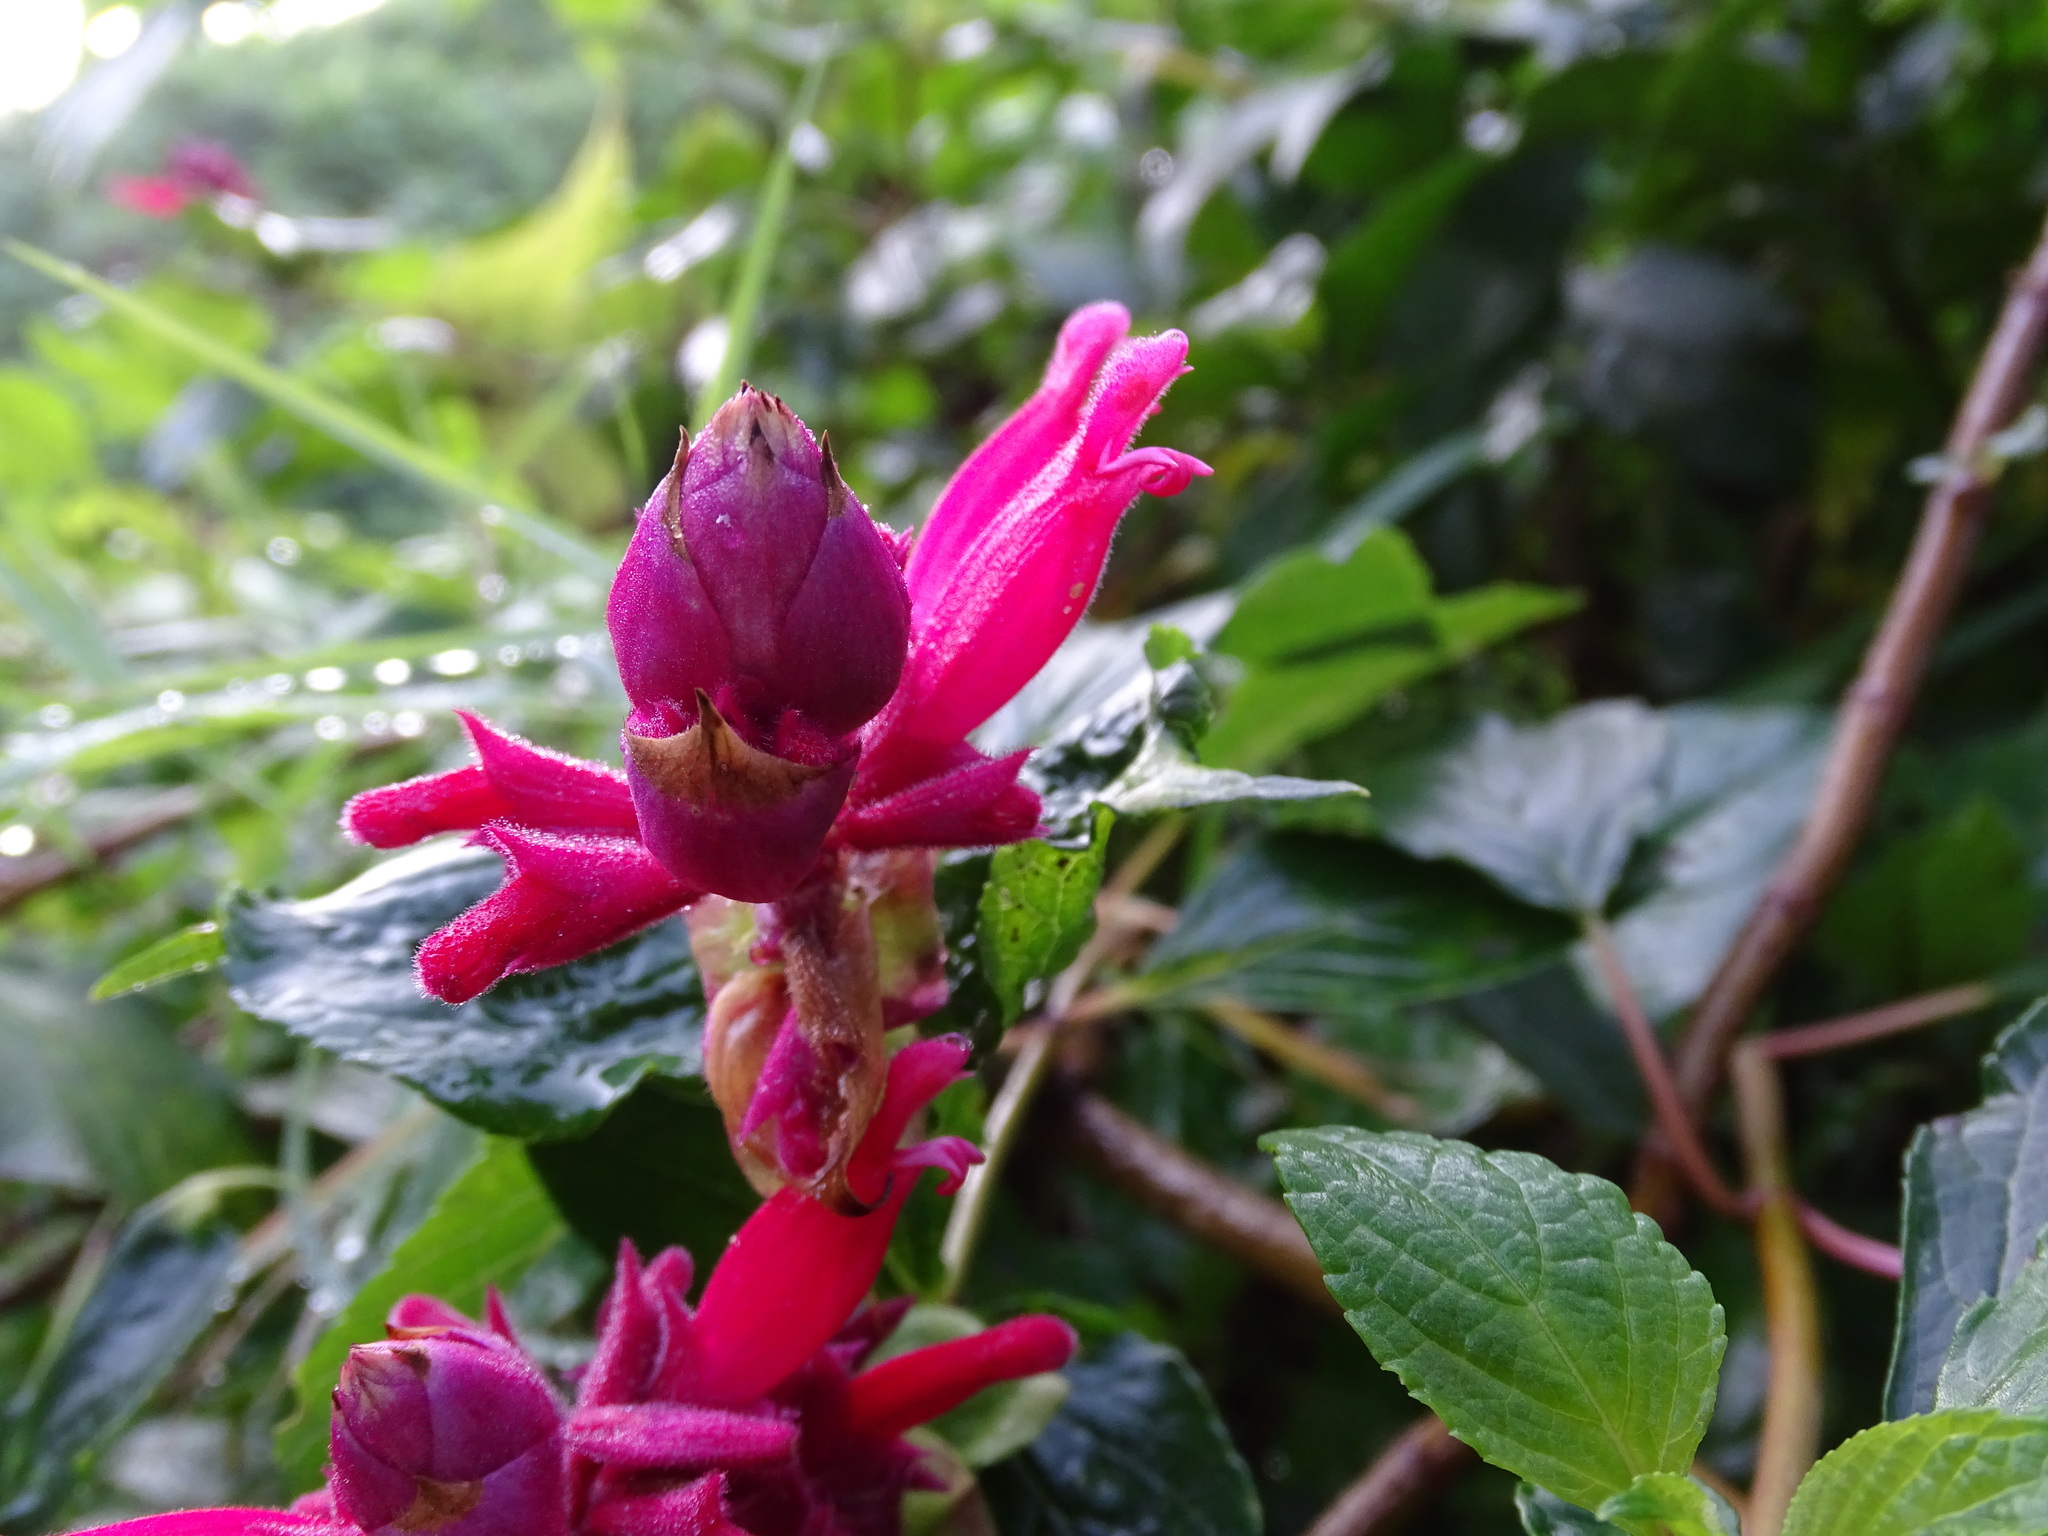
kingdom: Plantae
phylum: Tracheophyta
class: Magnoliopsida
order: Lamiales
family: Lamiaceae
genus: Salvia
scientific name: Salvia wagneriana
